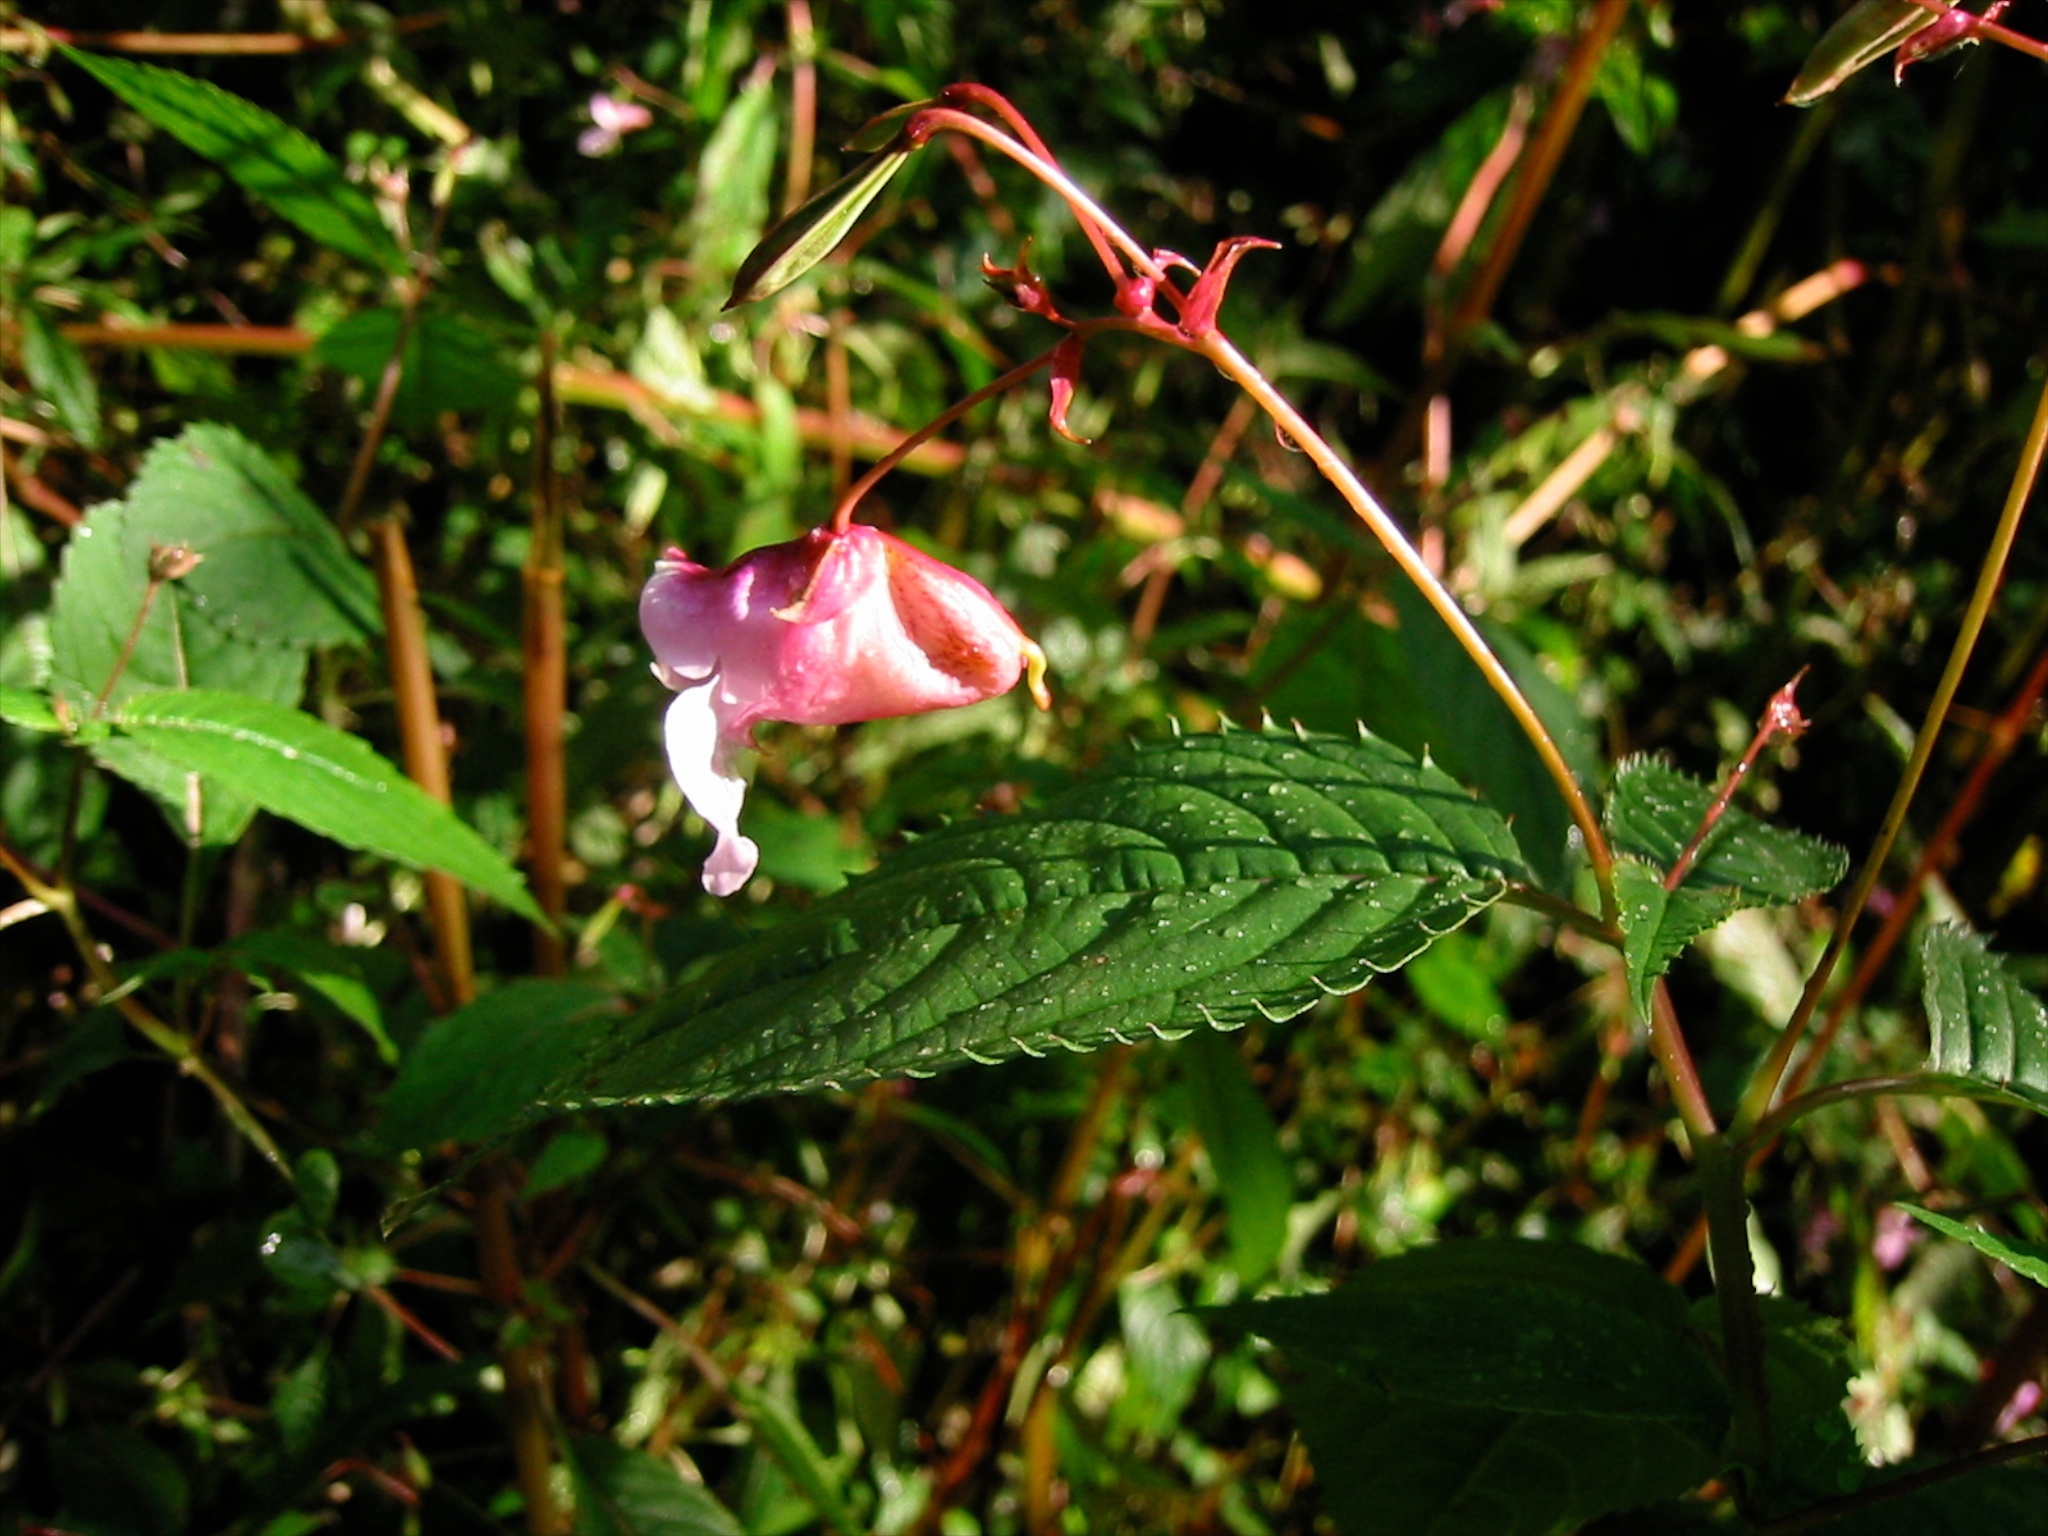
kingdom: Plantae
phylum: Tracheophyta
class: Magnoliopsida
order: Ericales
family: Balsaminaceae
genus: Impatiens
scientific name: Impatiens glandulifera
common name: Himalayan balsam
